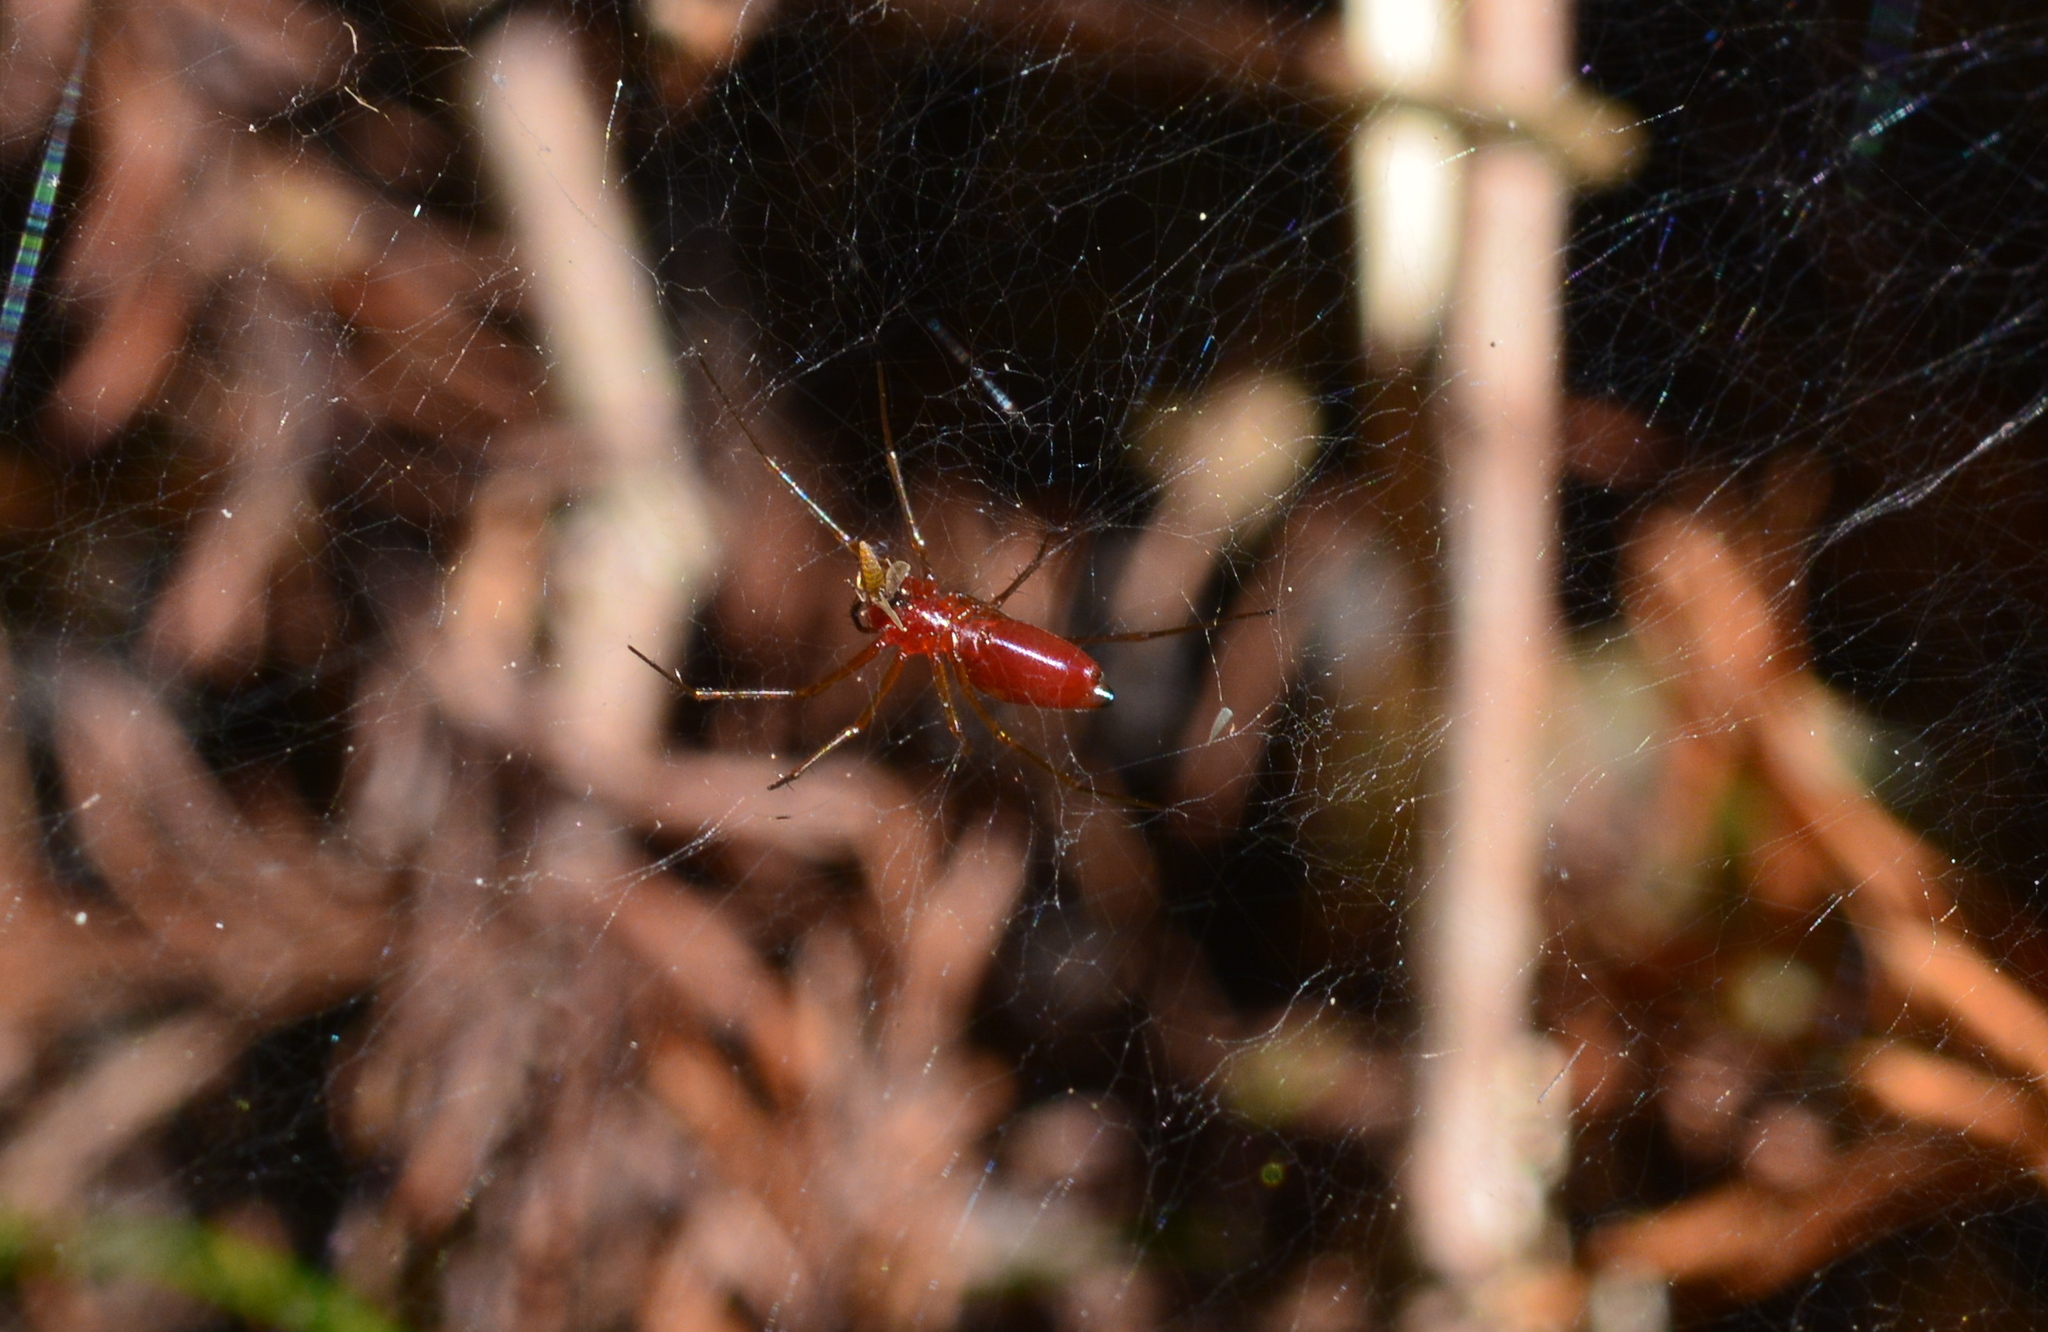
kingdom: Animalia
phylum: Arthropoda
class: Arachnida
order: Araneae
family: Linyphiidae
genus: Florinda
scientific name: Florinda coccinea
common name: Black-tailed red sheetweaver
